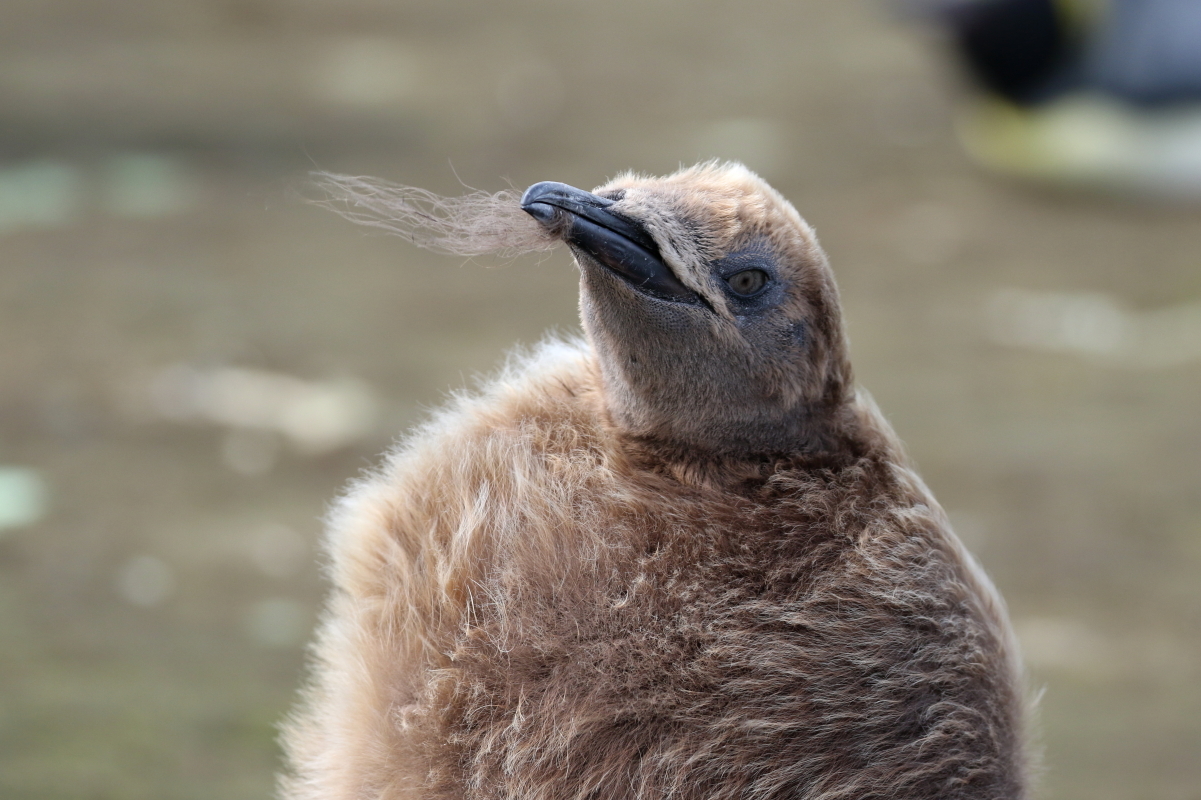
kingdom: Animalia
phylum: Chordata
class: Aves
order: Sphenisciformes
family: Spheniscidae
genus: Aptenodytes
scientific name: Aptenodytes patagonicus
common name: King penguin
